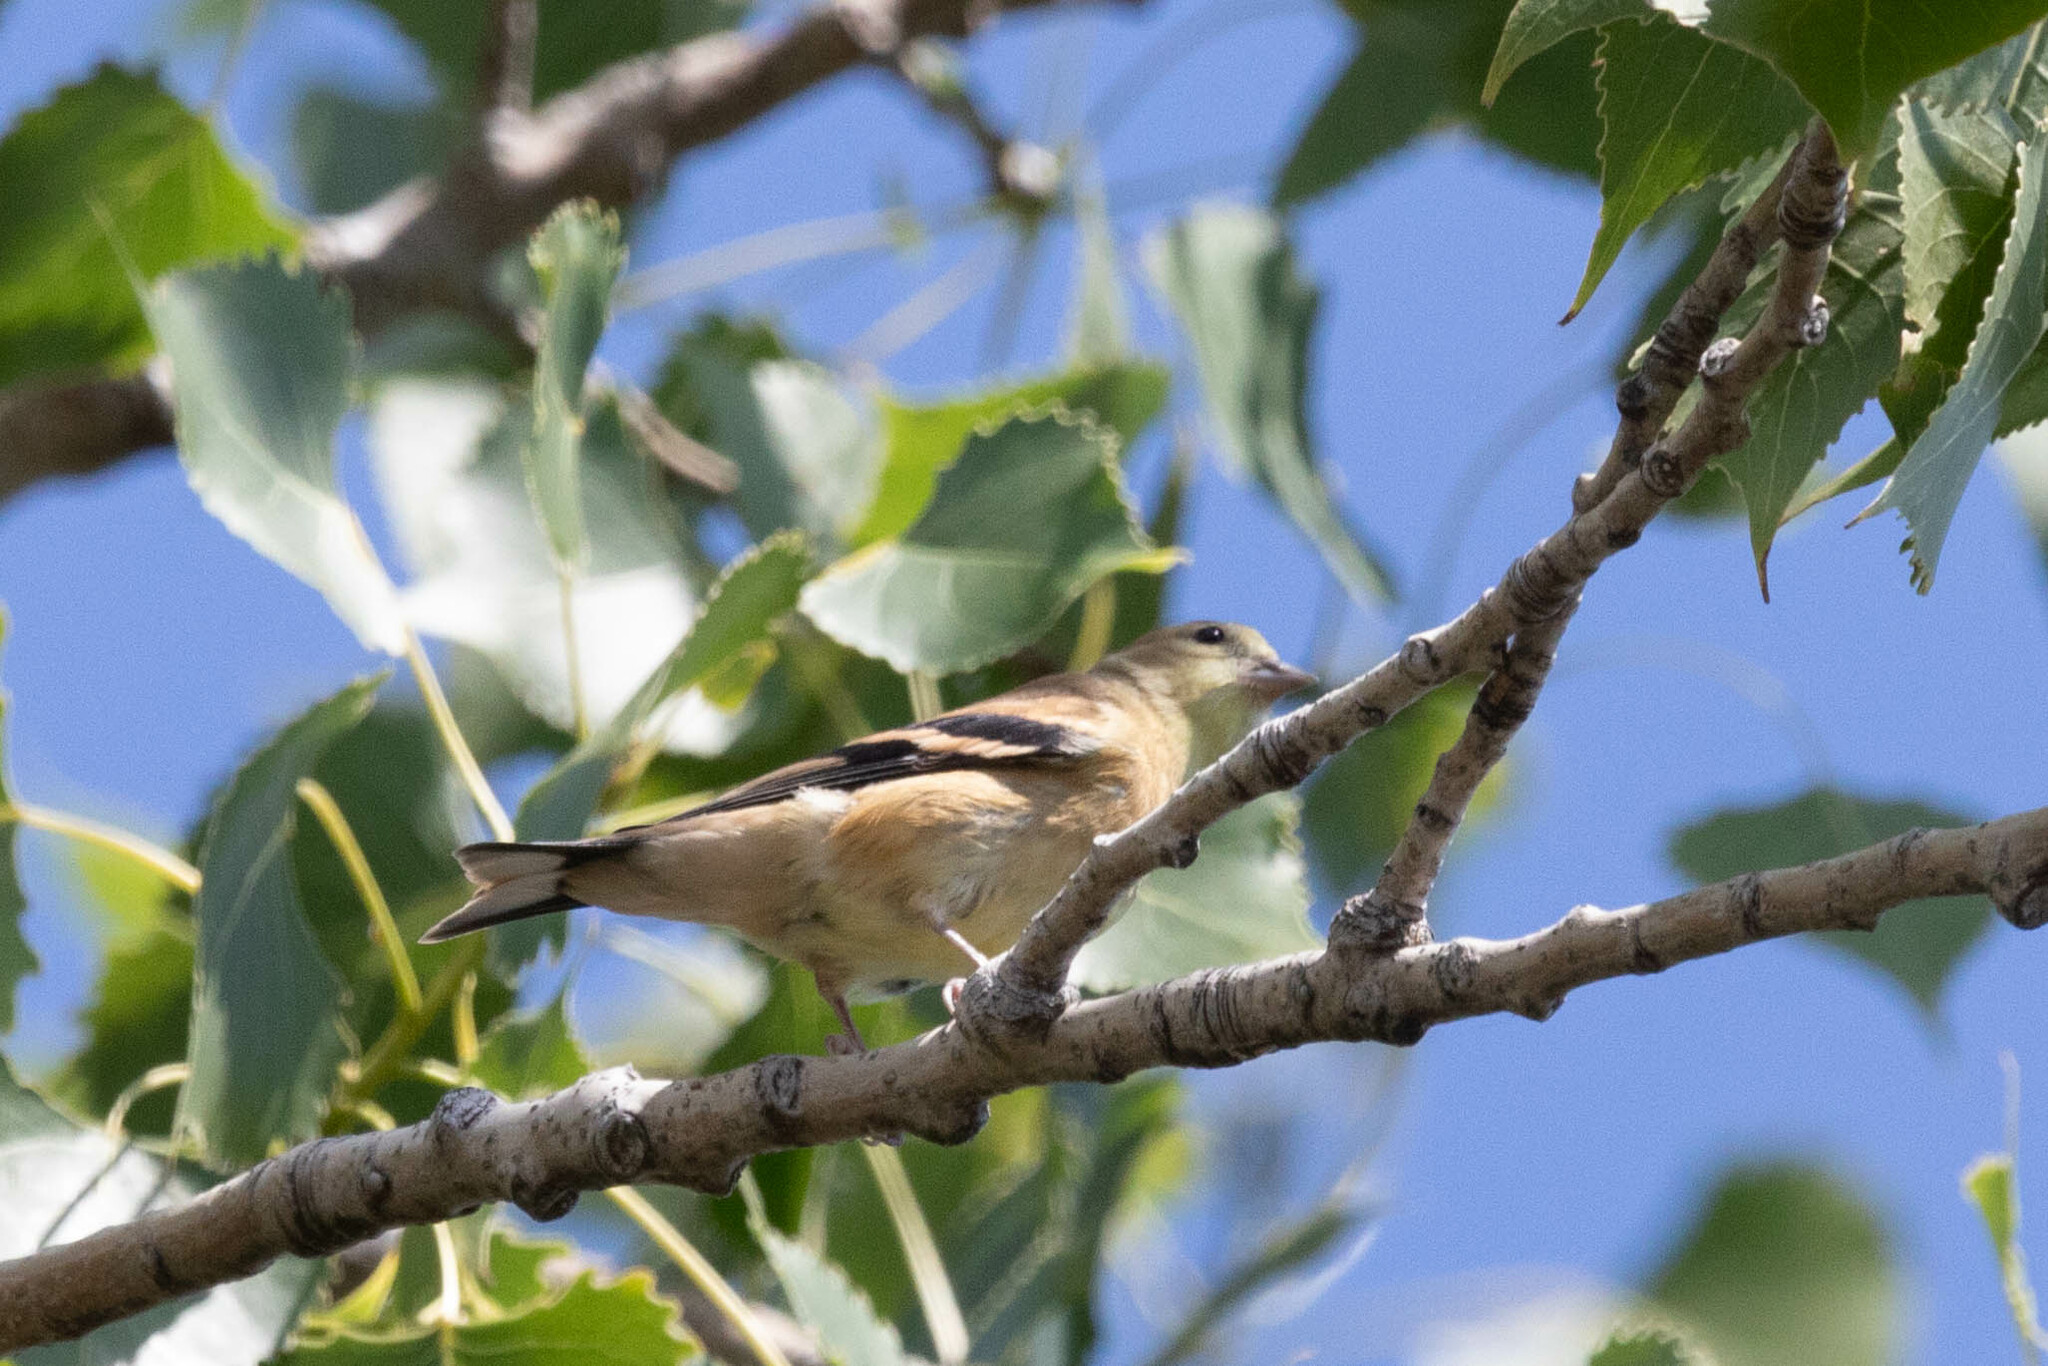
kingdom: Animalia
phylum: Chordata
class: Aves
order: Passeriformes
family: Fringillidae
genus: Spinus
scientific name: Spinus tristis
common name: American goldfinch
